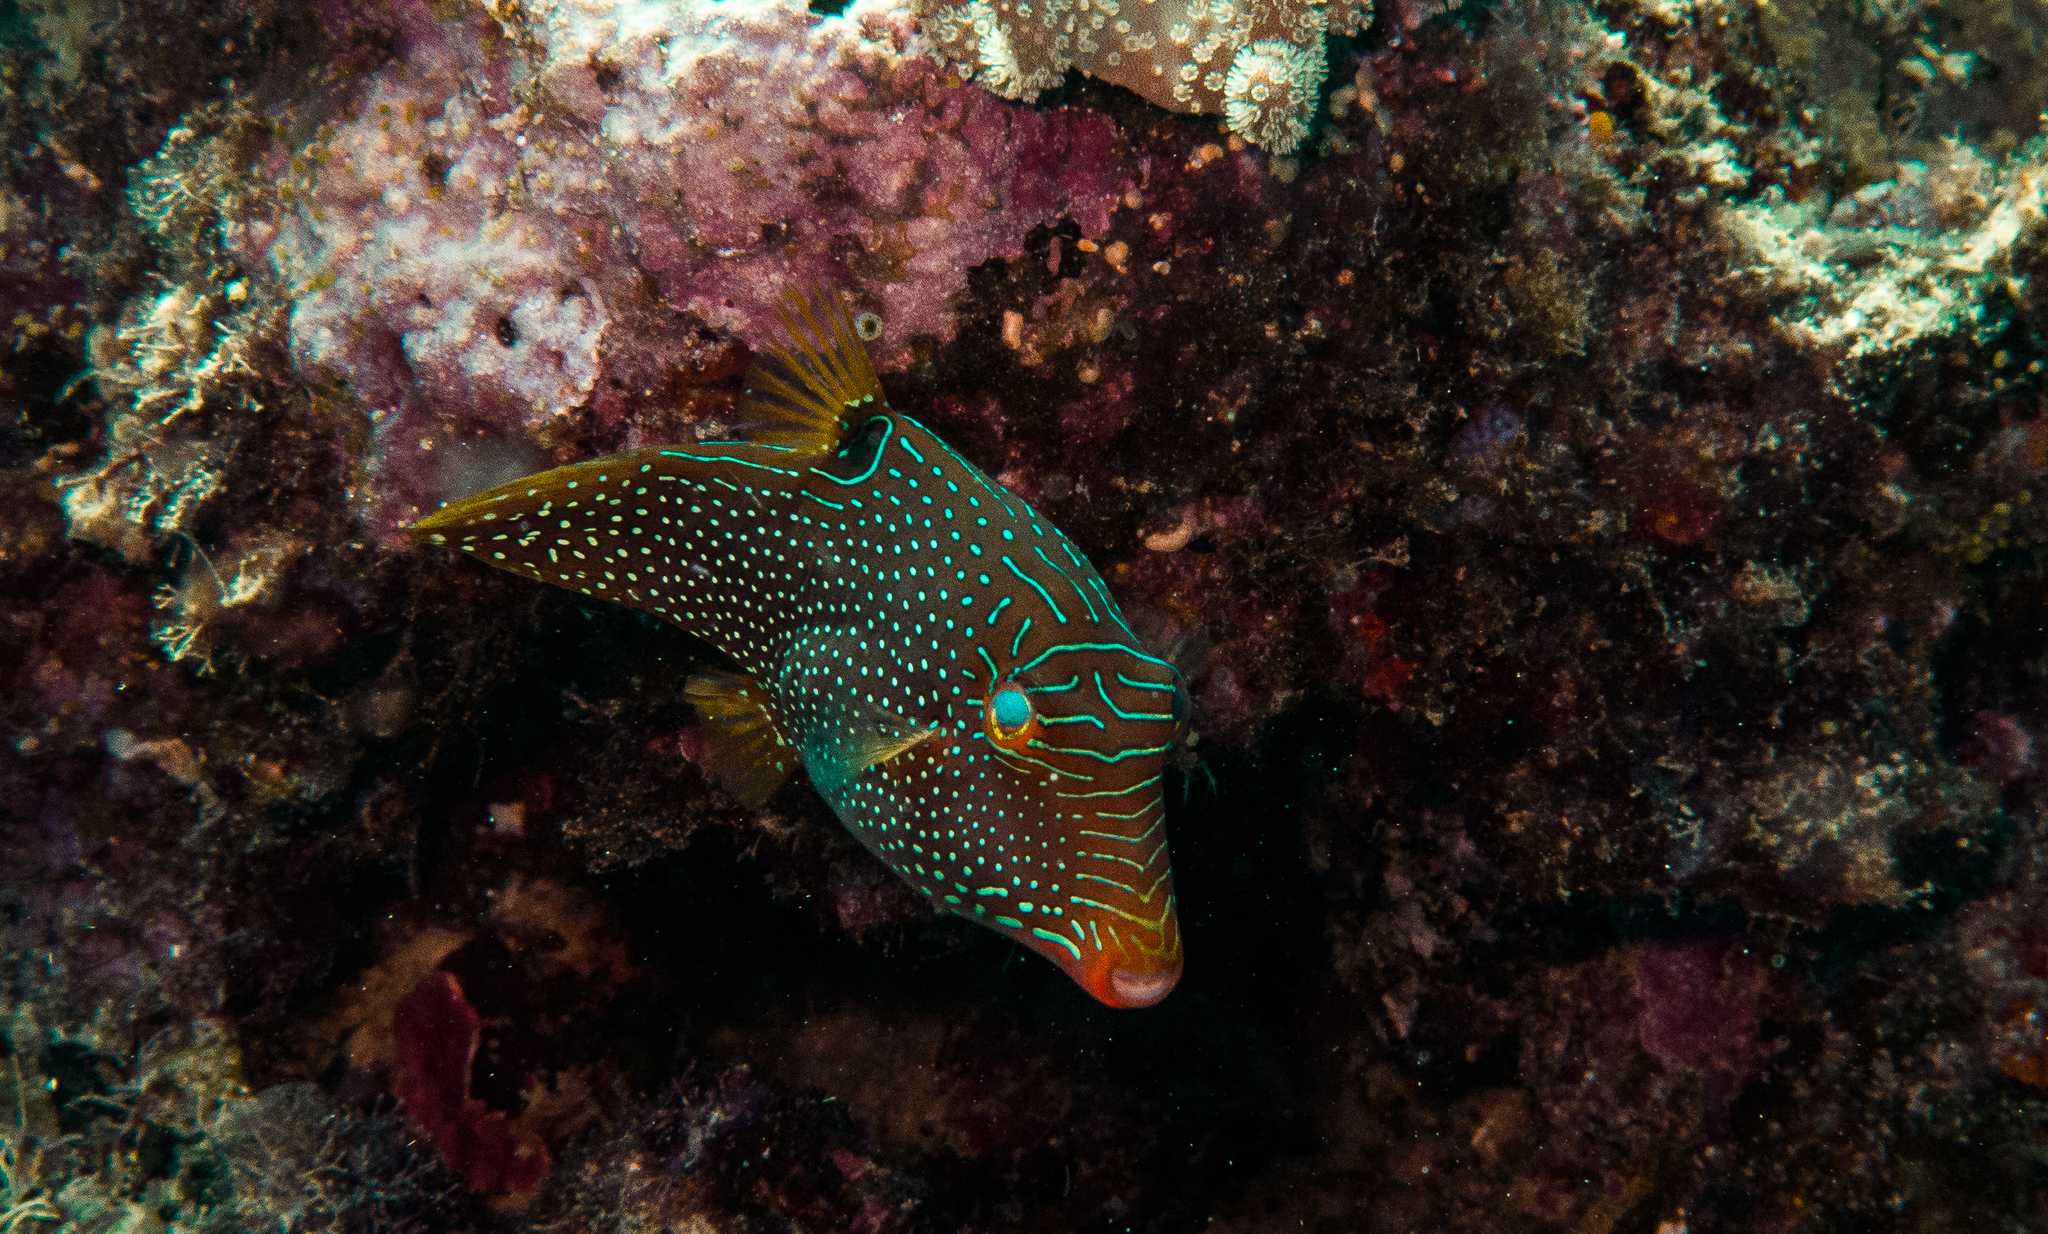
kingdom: Animalia
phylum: Chordata
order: Tetraodontiformes
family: Tetraodontidae
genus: Canthigaster
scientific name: Canthigaster papua
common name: False-eyed pufferfish
